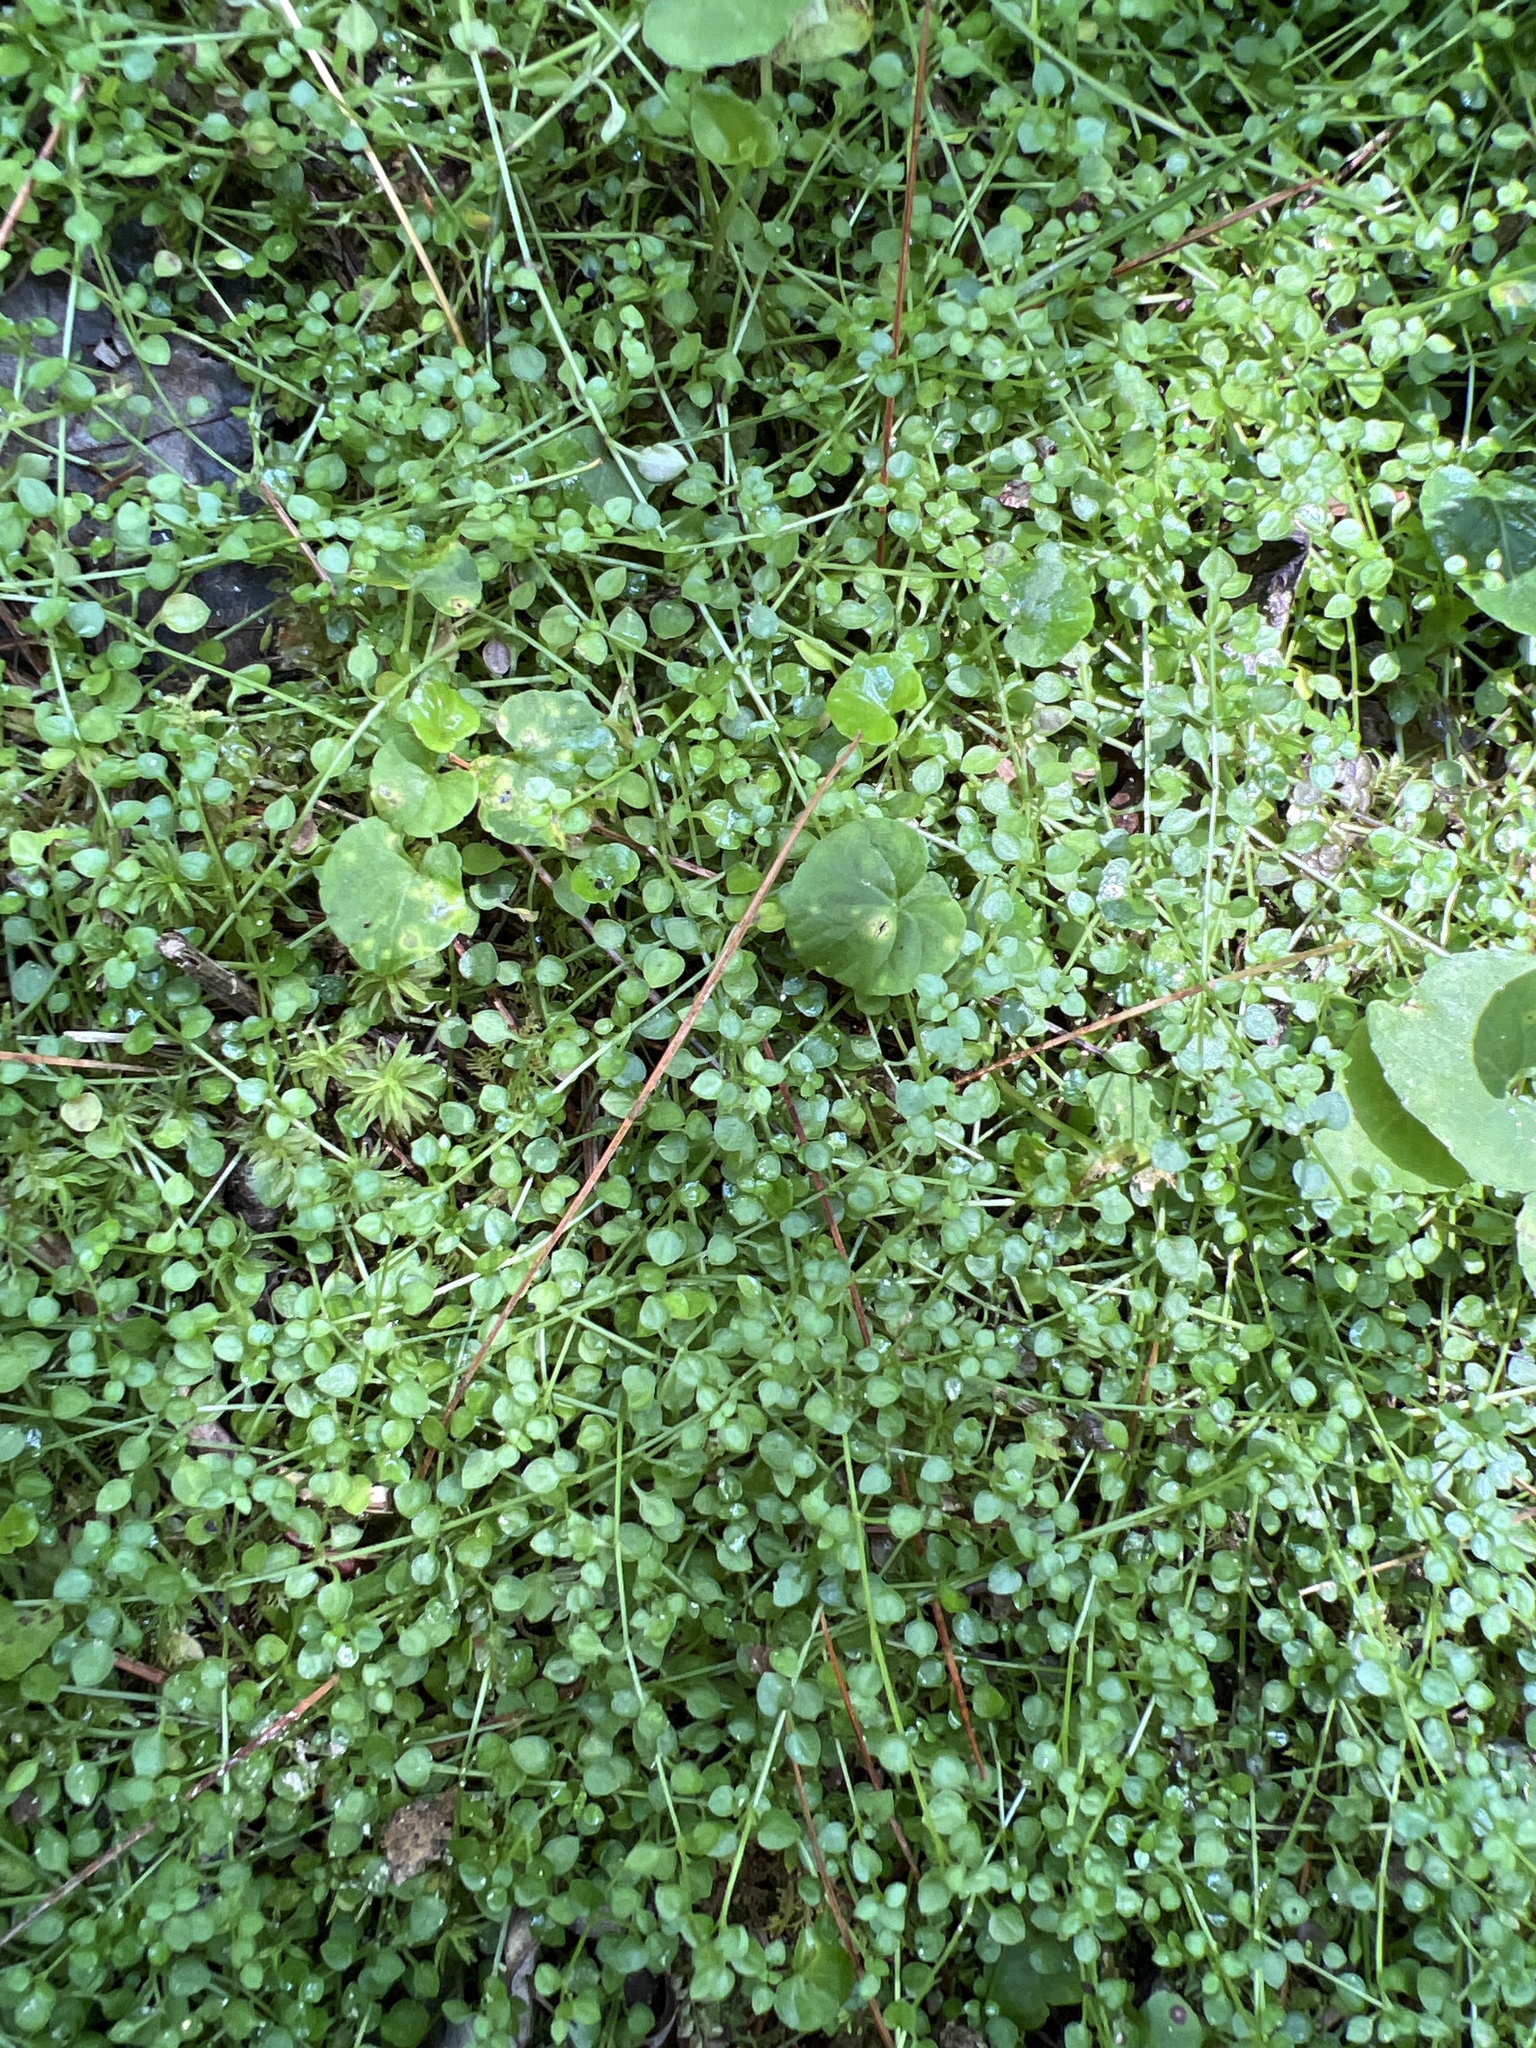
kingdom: Plantae
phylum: Tracheophyta
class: Magnoliopsida
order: Gentianales
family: Rubiaceae
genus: Houstonia
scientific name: Houstonia serpyllifolia
